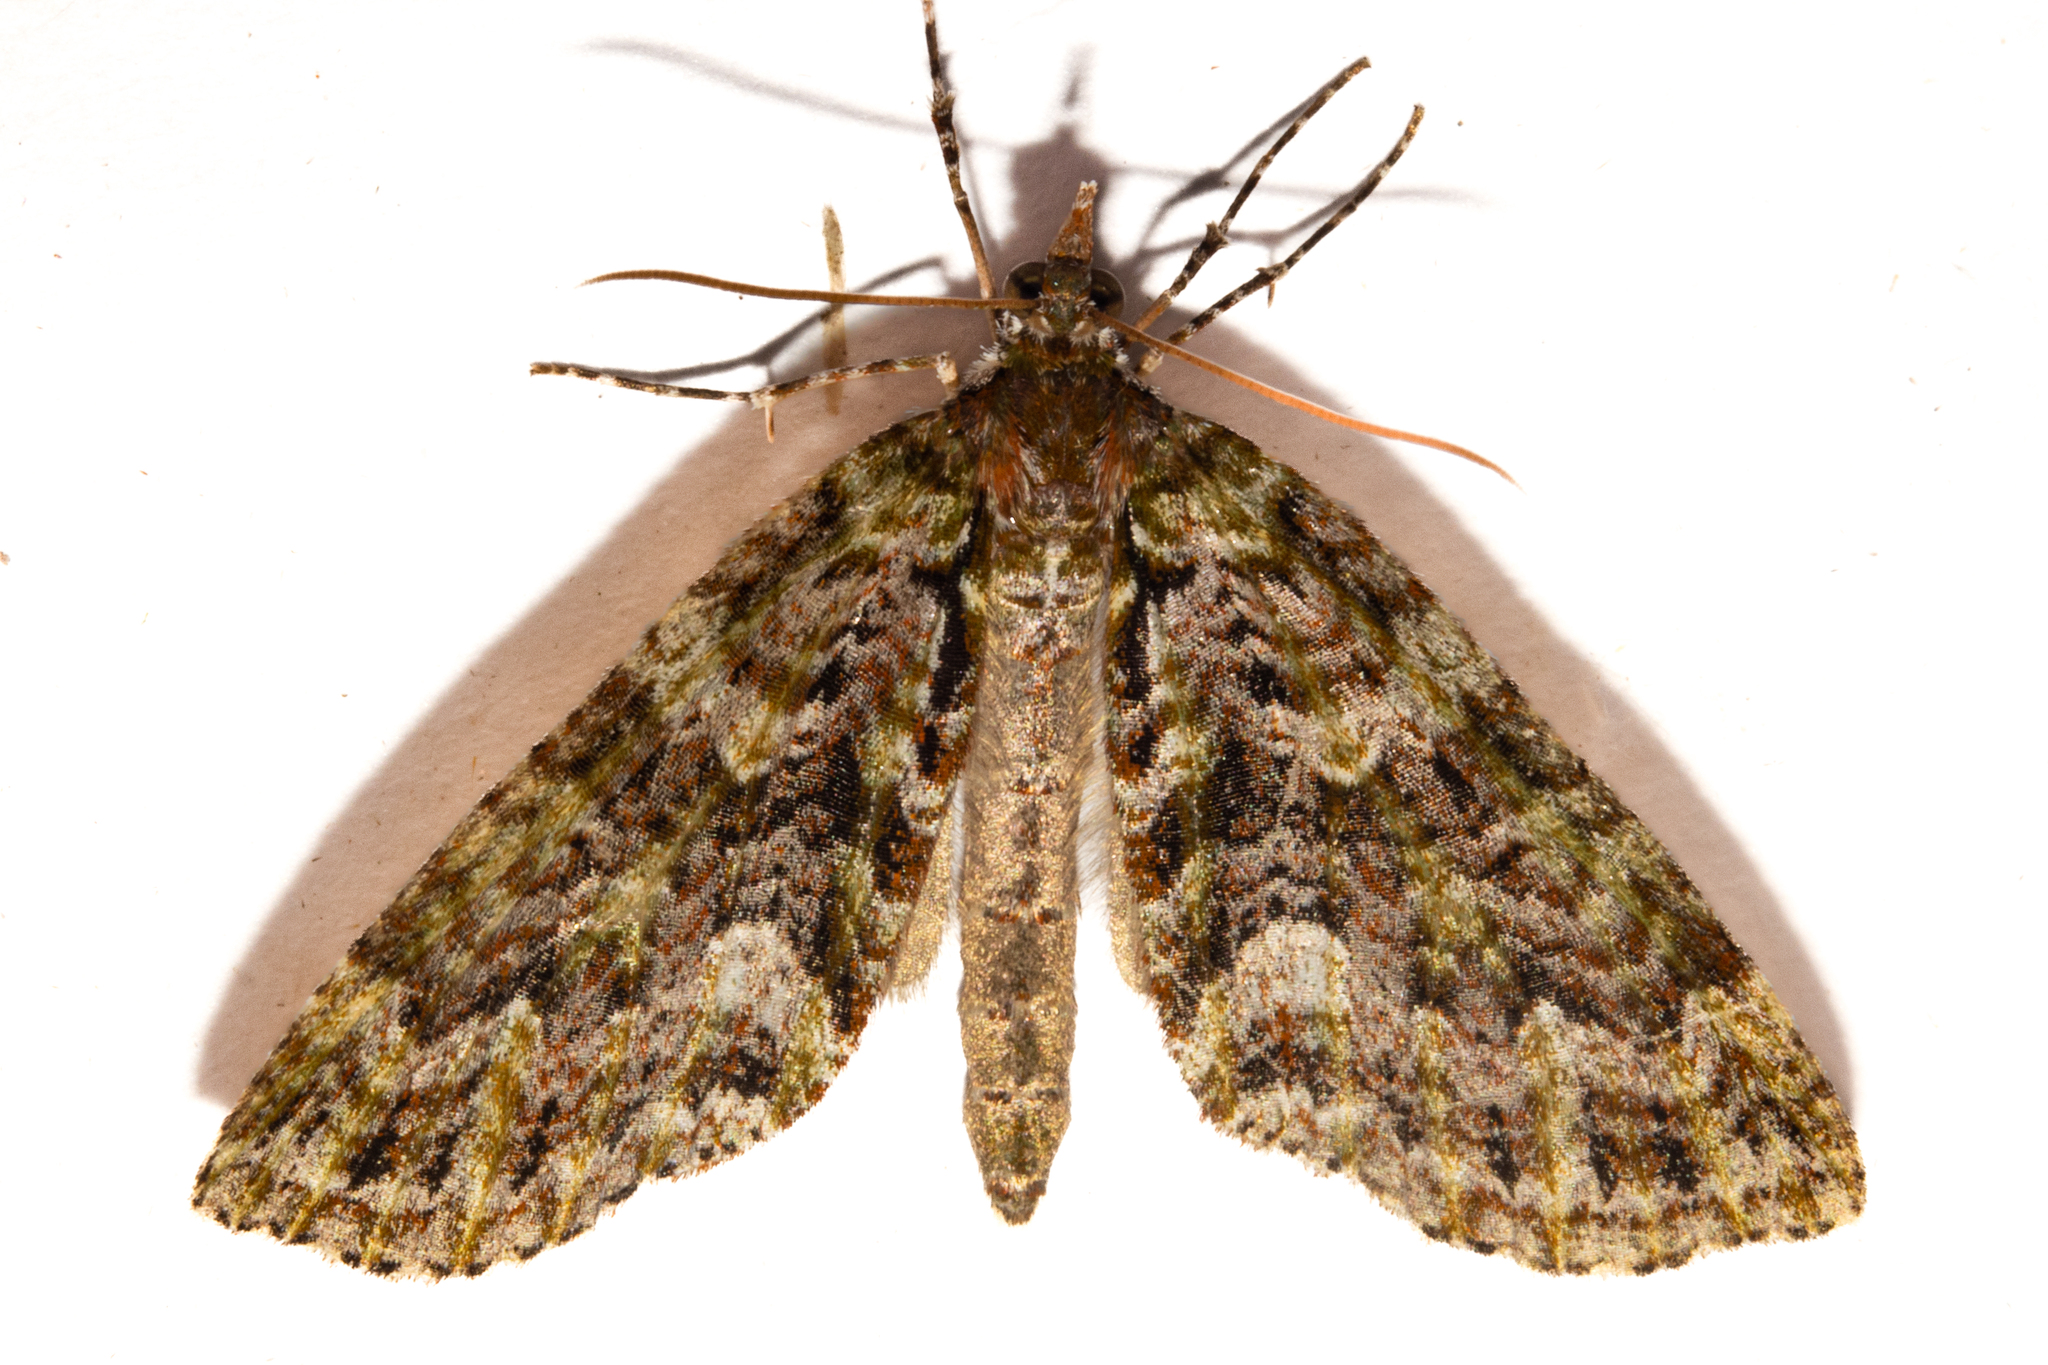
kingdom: Animalia
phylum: Arthropoda
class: Insecta
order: Lepidoptera
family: Geometridae
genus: Tatosoma
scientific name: Tatosoma agrionata
